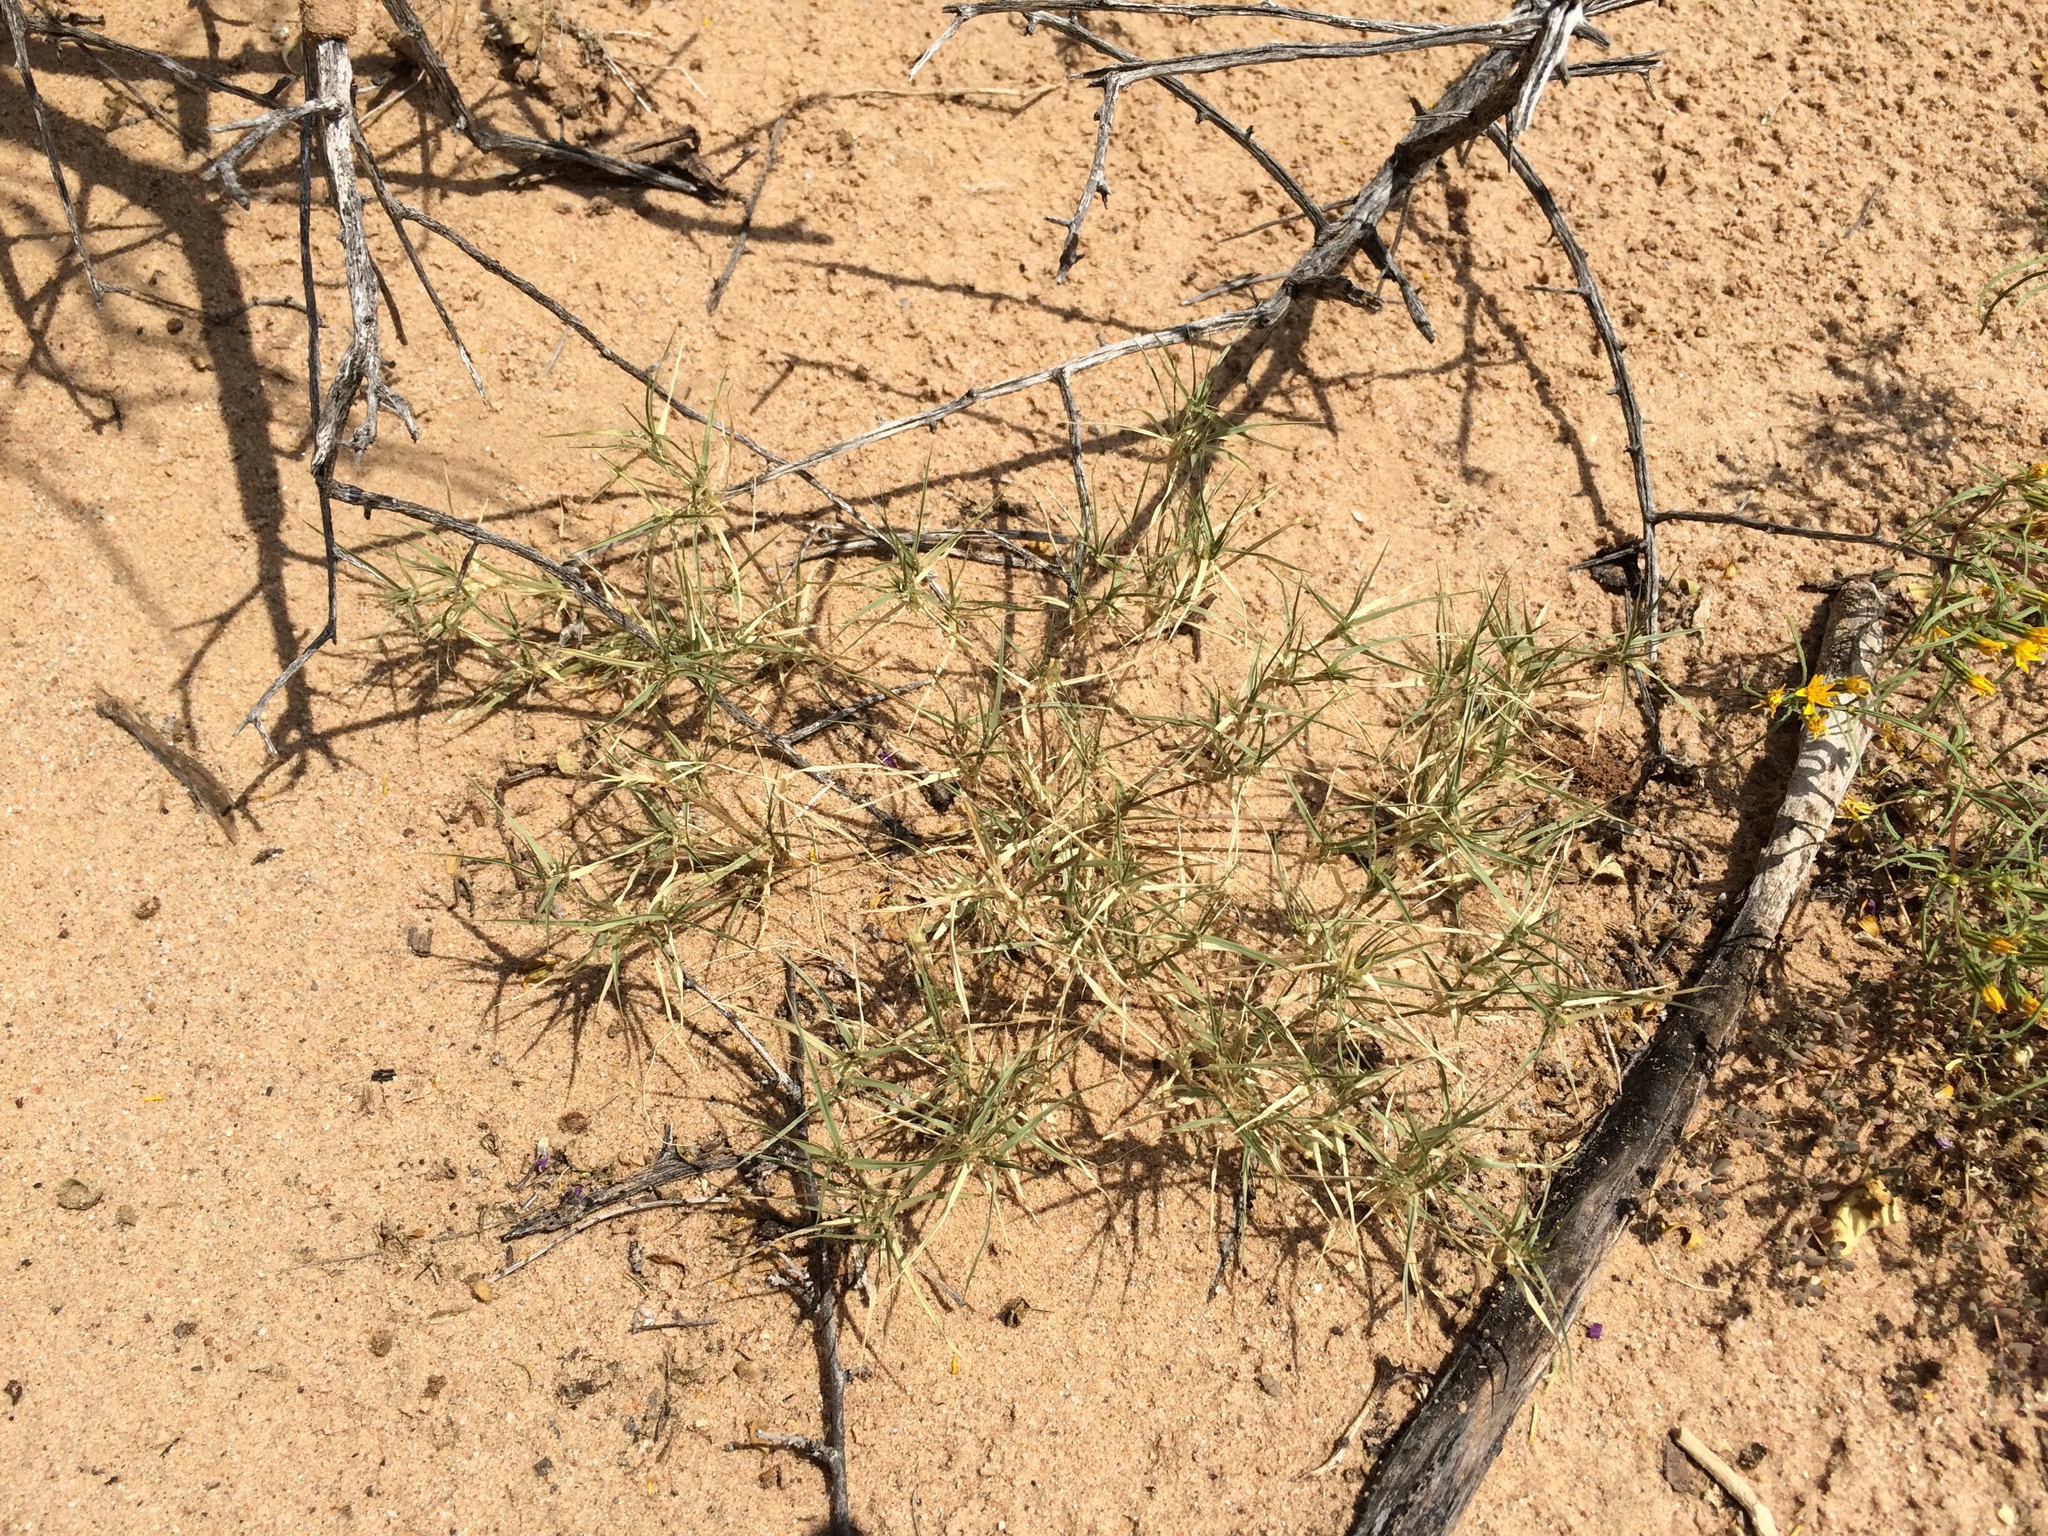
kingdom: Plantae
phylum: Tracheophyta
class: Liliopsida
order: Poales
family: Poaceae
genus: Munroa
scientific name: Munroa squarrosa
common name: False buffalo grass
